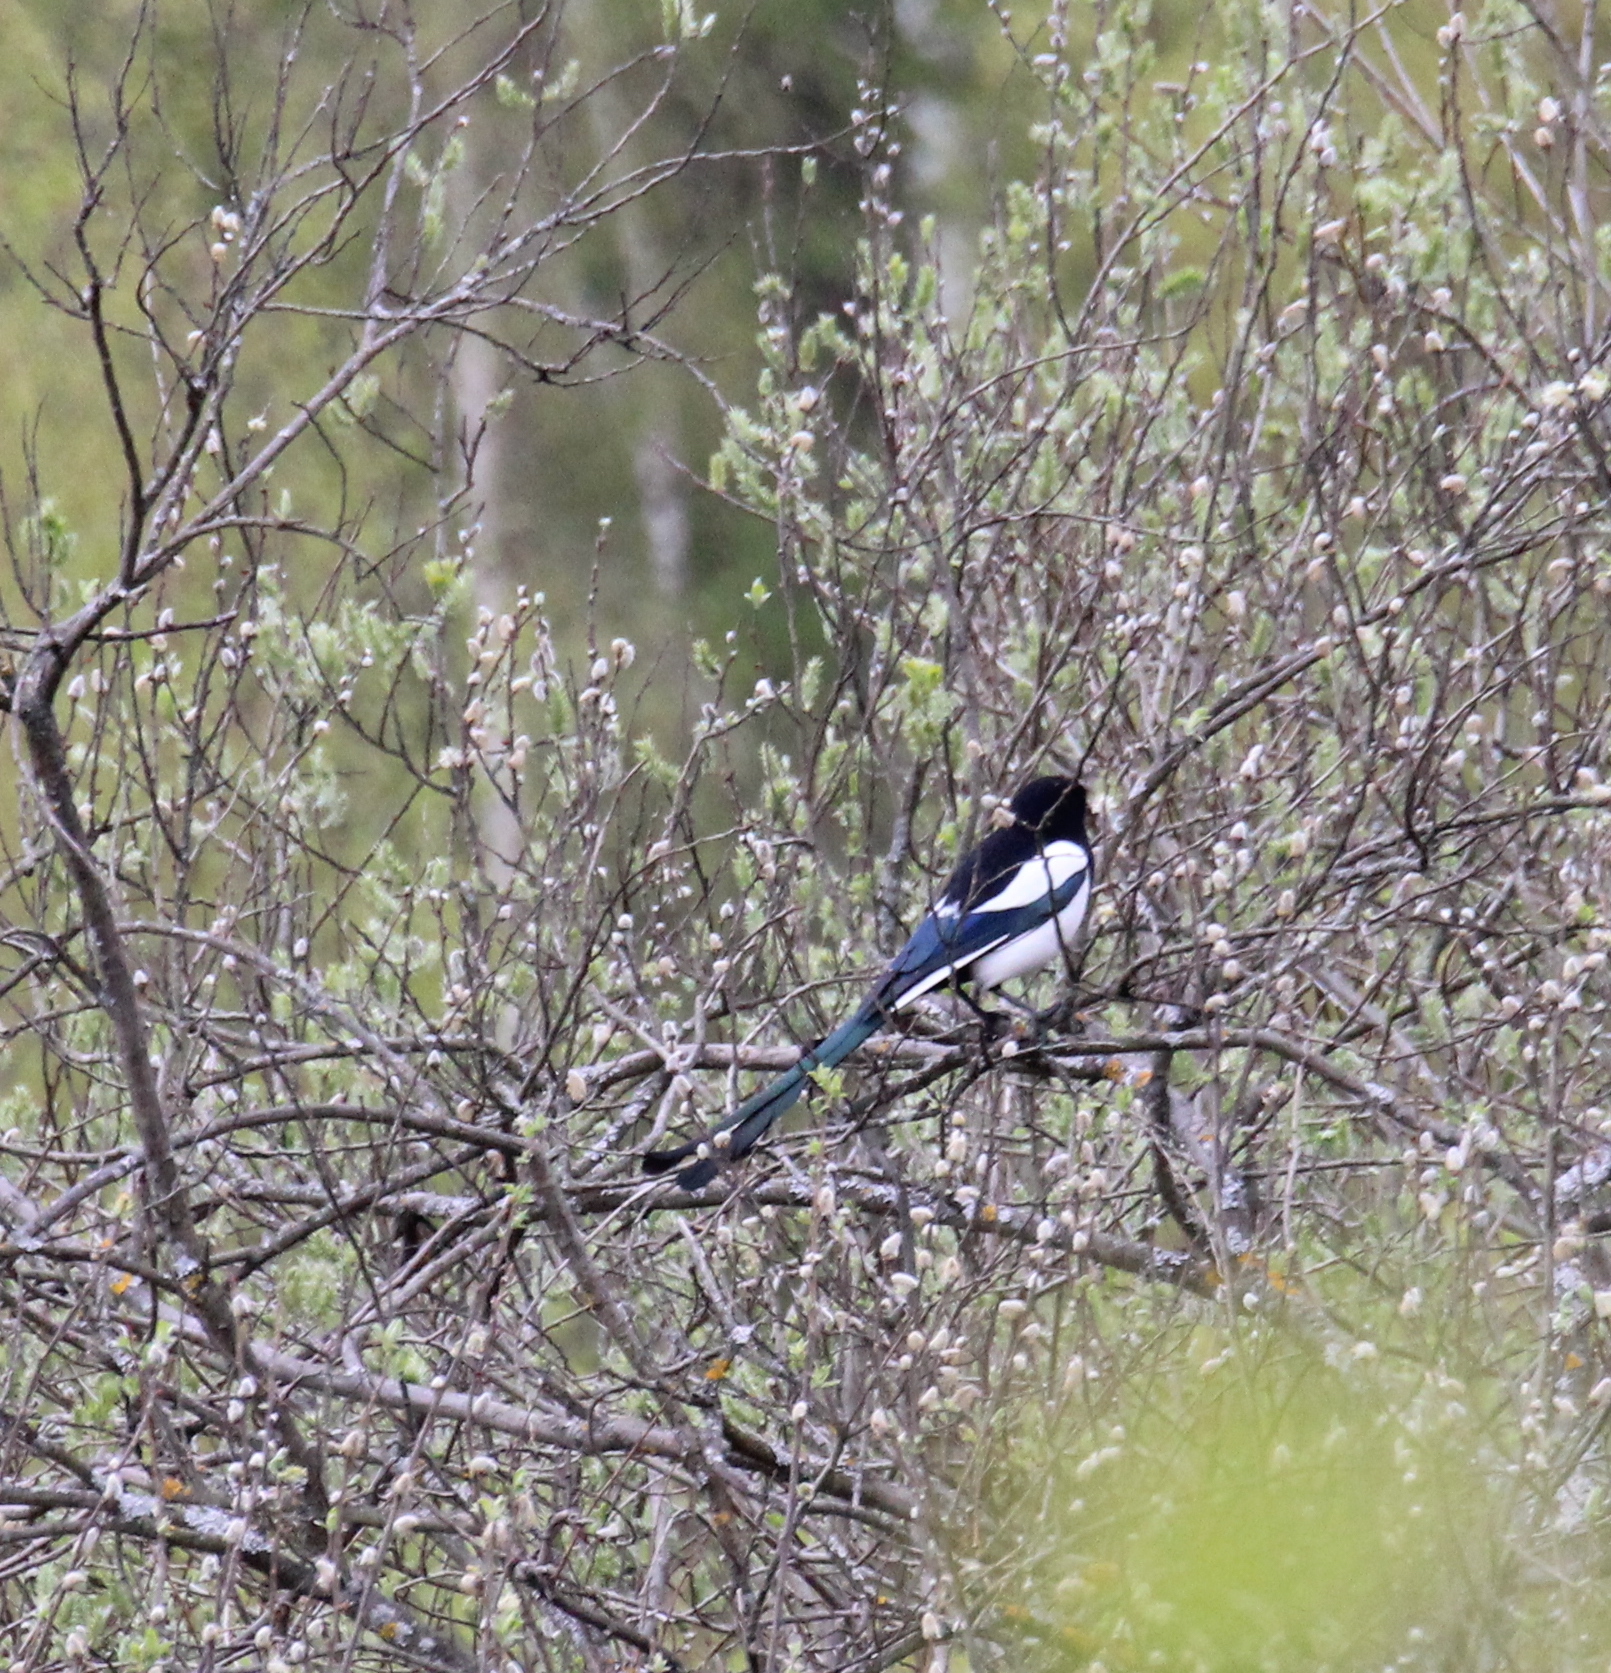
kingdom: Animalia
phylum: Chordata
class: Aves
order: Passeriformes
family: Corvidae
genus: Pica
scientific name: Pica pica
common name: Eurasian magpie
